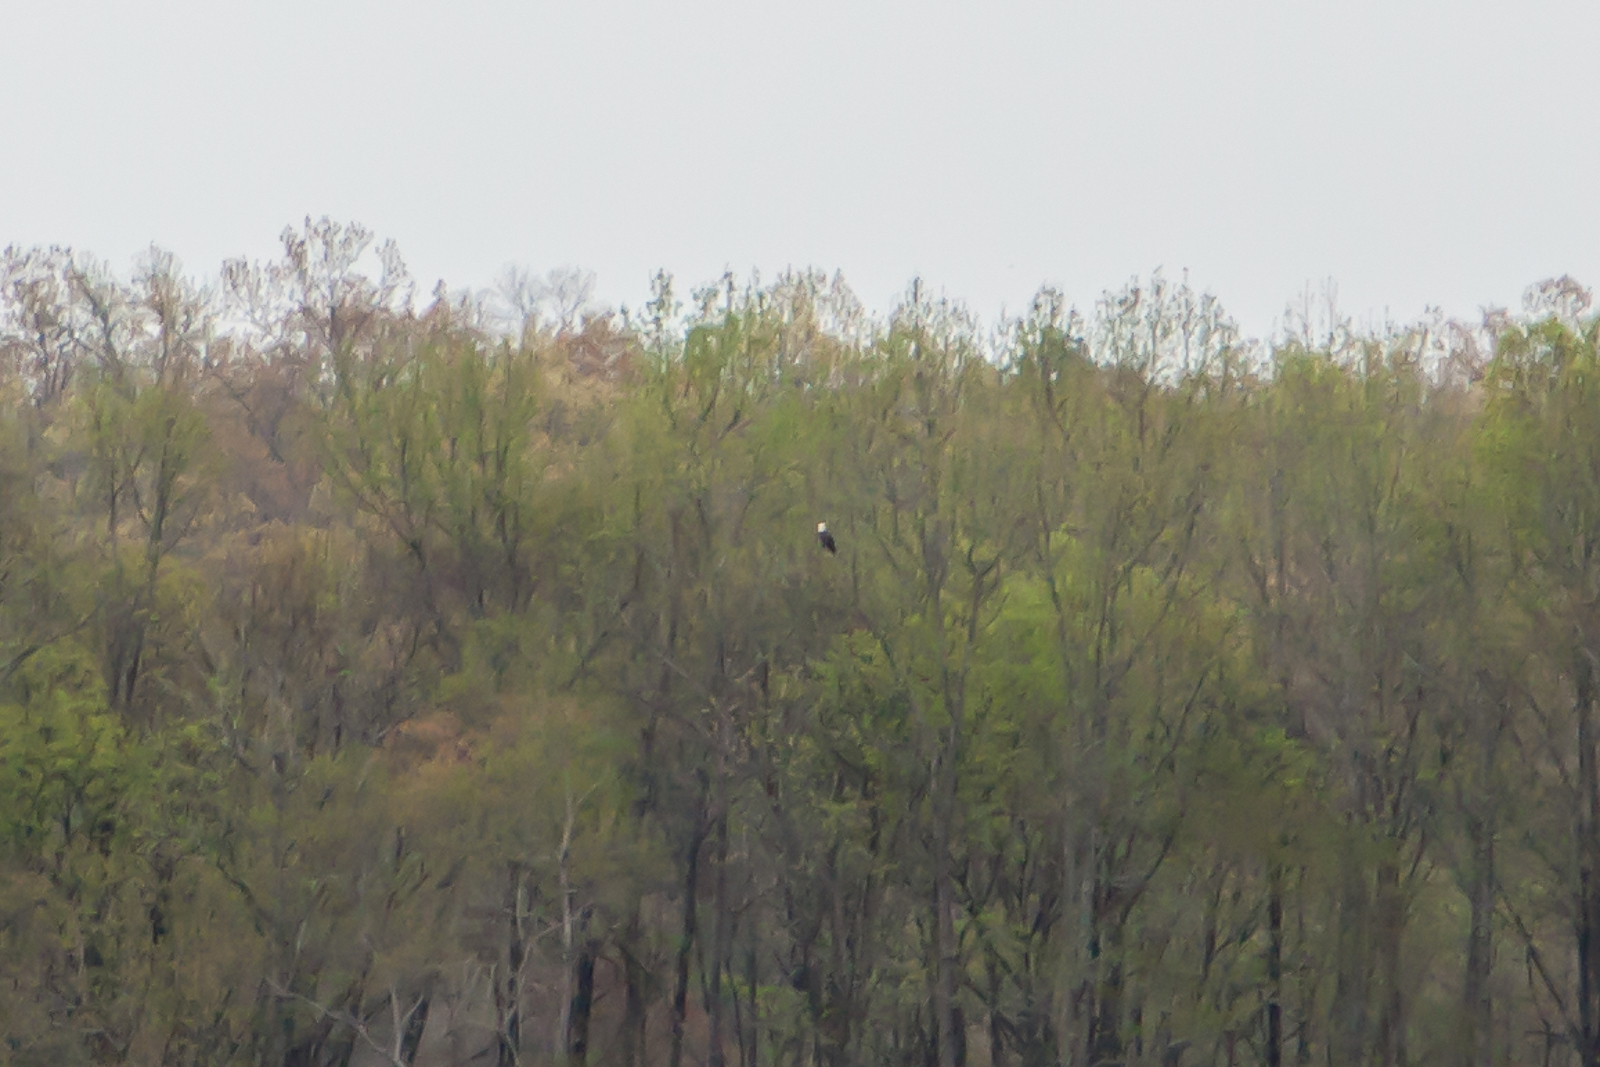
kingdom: Animalia
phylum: Chordata
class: Aves
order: Accipitriformes
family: Accipitridae
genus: Haliaeetus
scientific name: Haliaeetus leucocephalus
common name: Bald eagle
